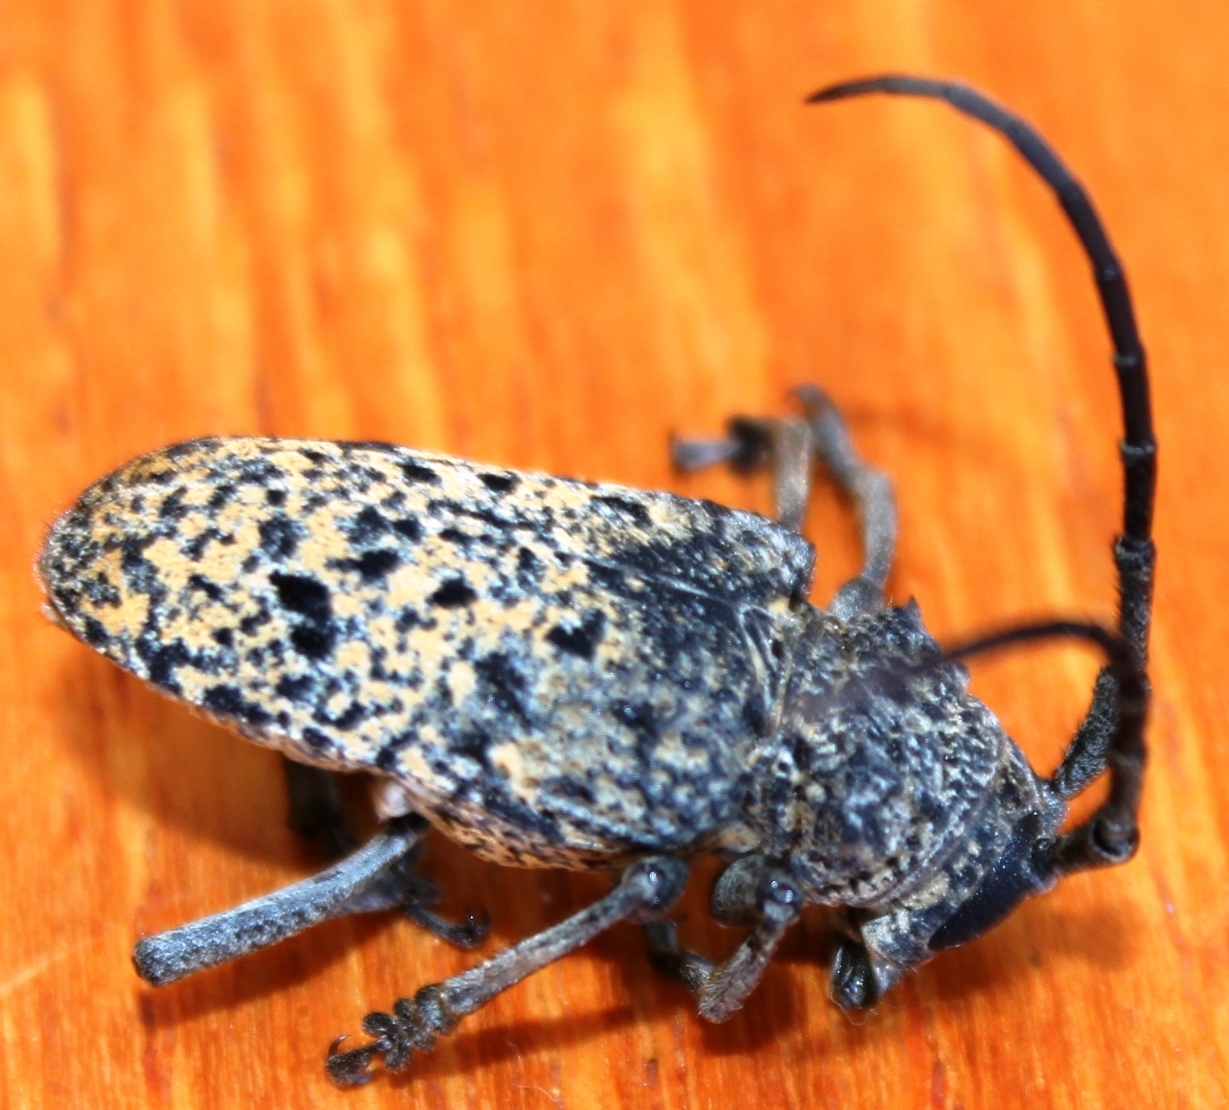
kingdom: Animalia
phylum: Arthropoda
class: Insecta
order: Coleoptera
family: Cerambycidae
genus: Phryneta
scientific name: Phryneta spinator
